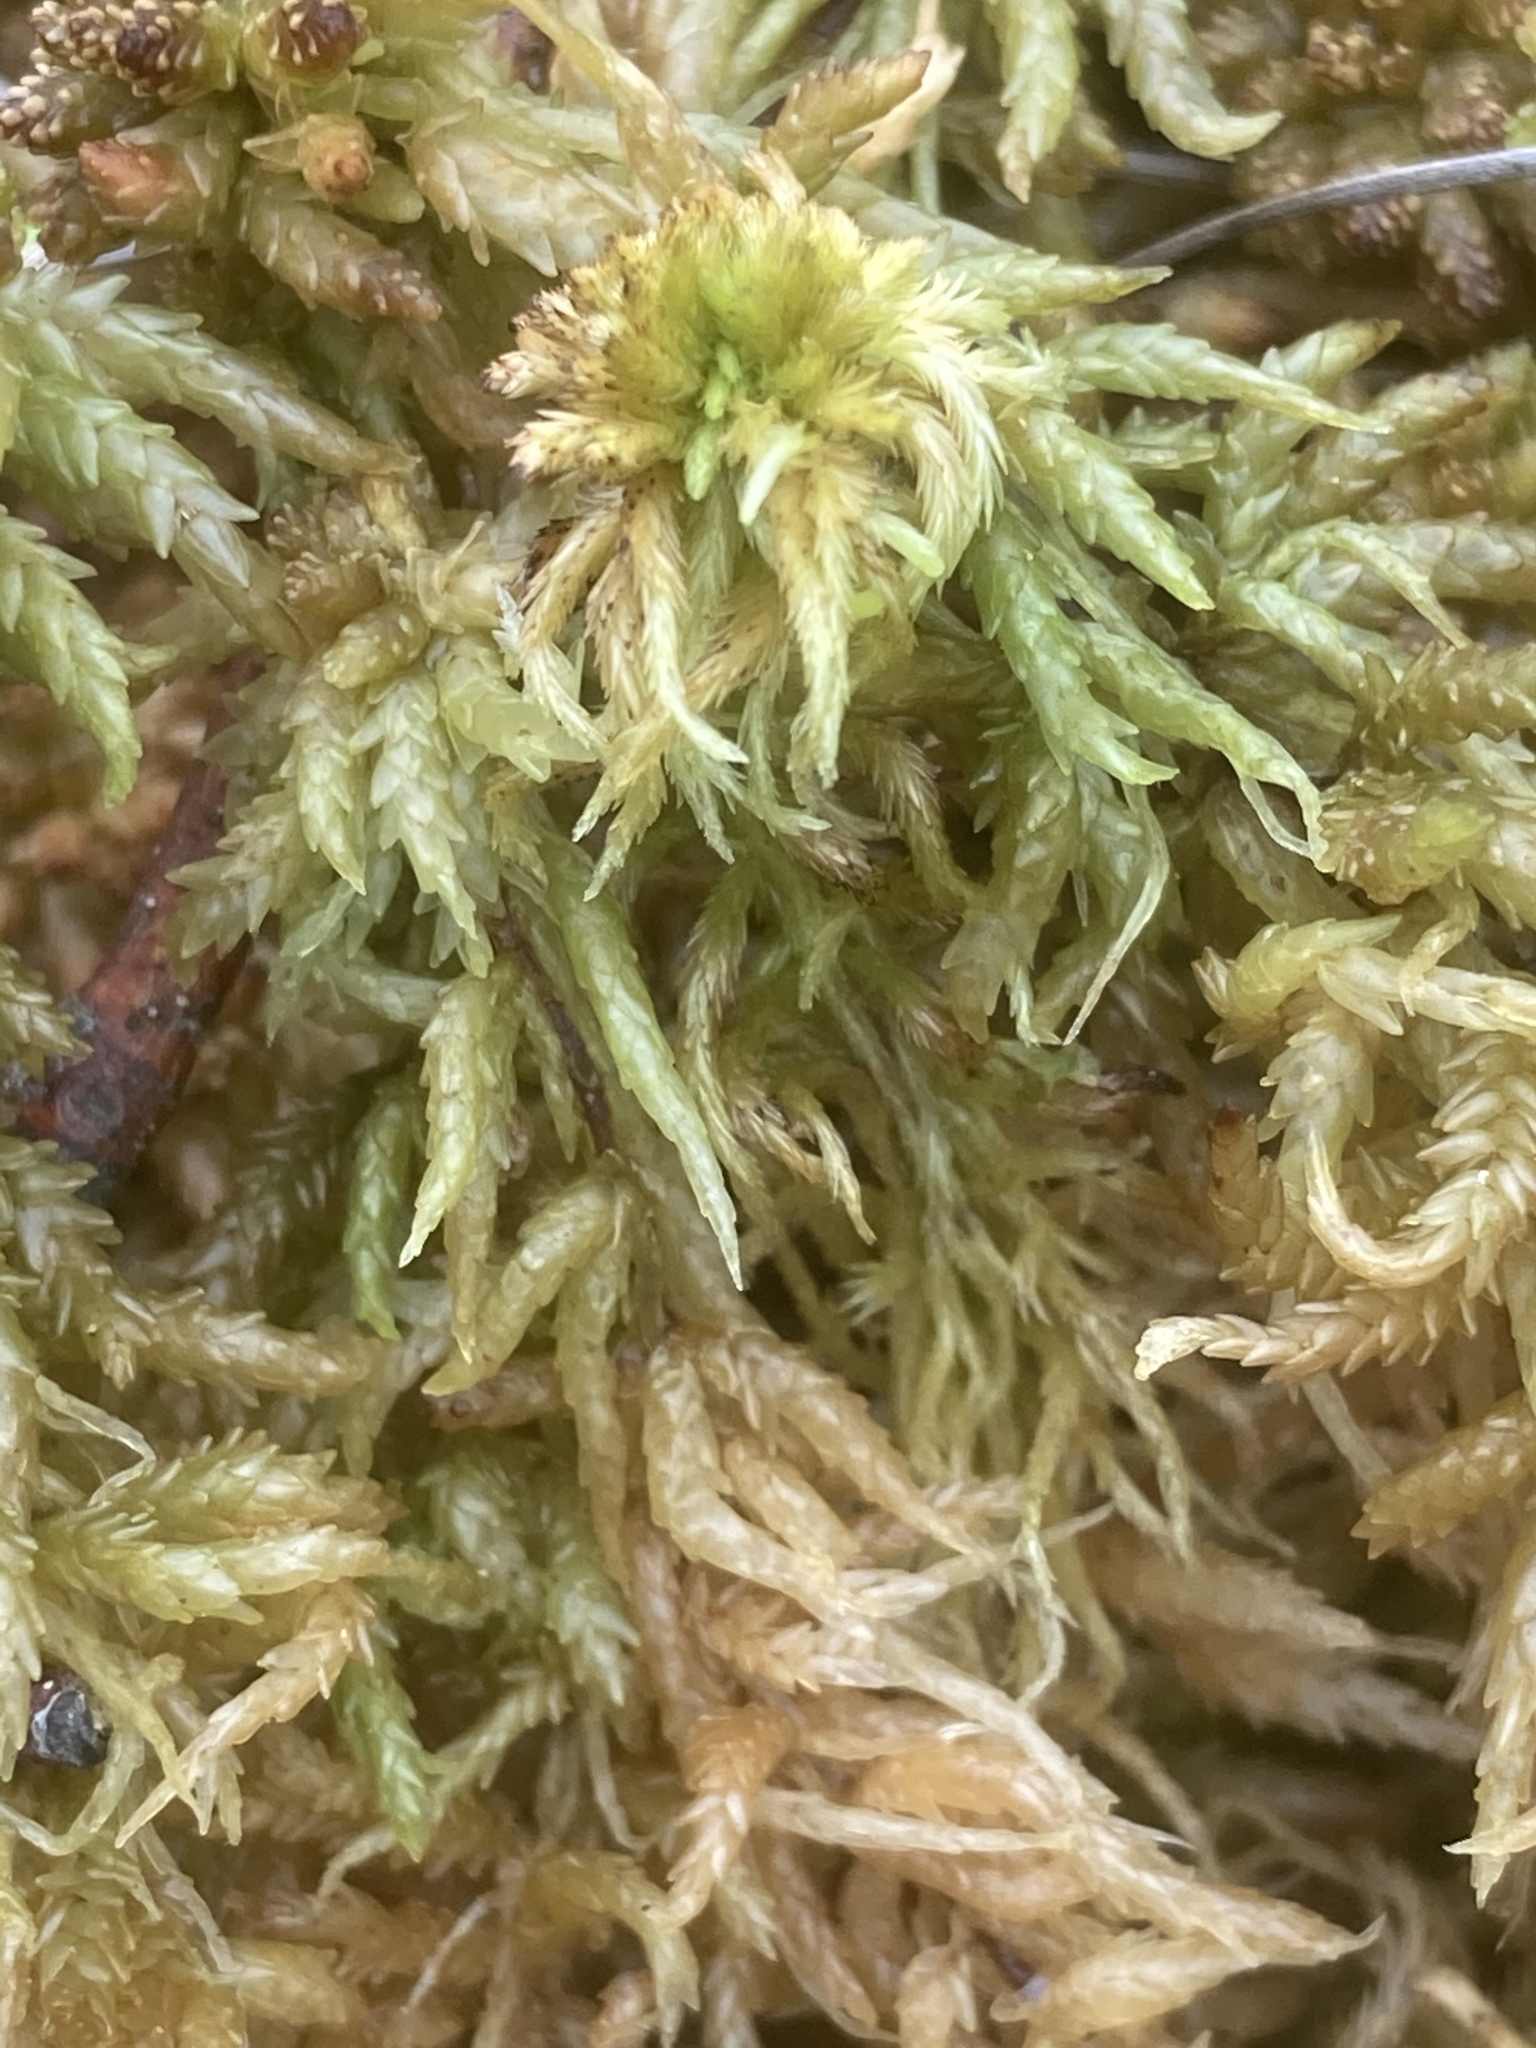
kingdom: Plantae
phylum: Bryophyta
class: Sphagnopsida
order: Sphagnales
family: Sphagnaceae
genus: Sphagnum
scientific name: Sphagnum cuspidatum
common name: Feathery peat moss
